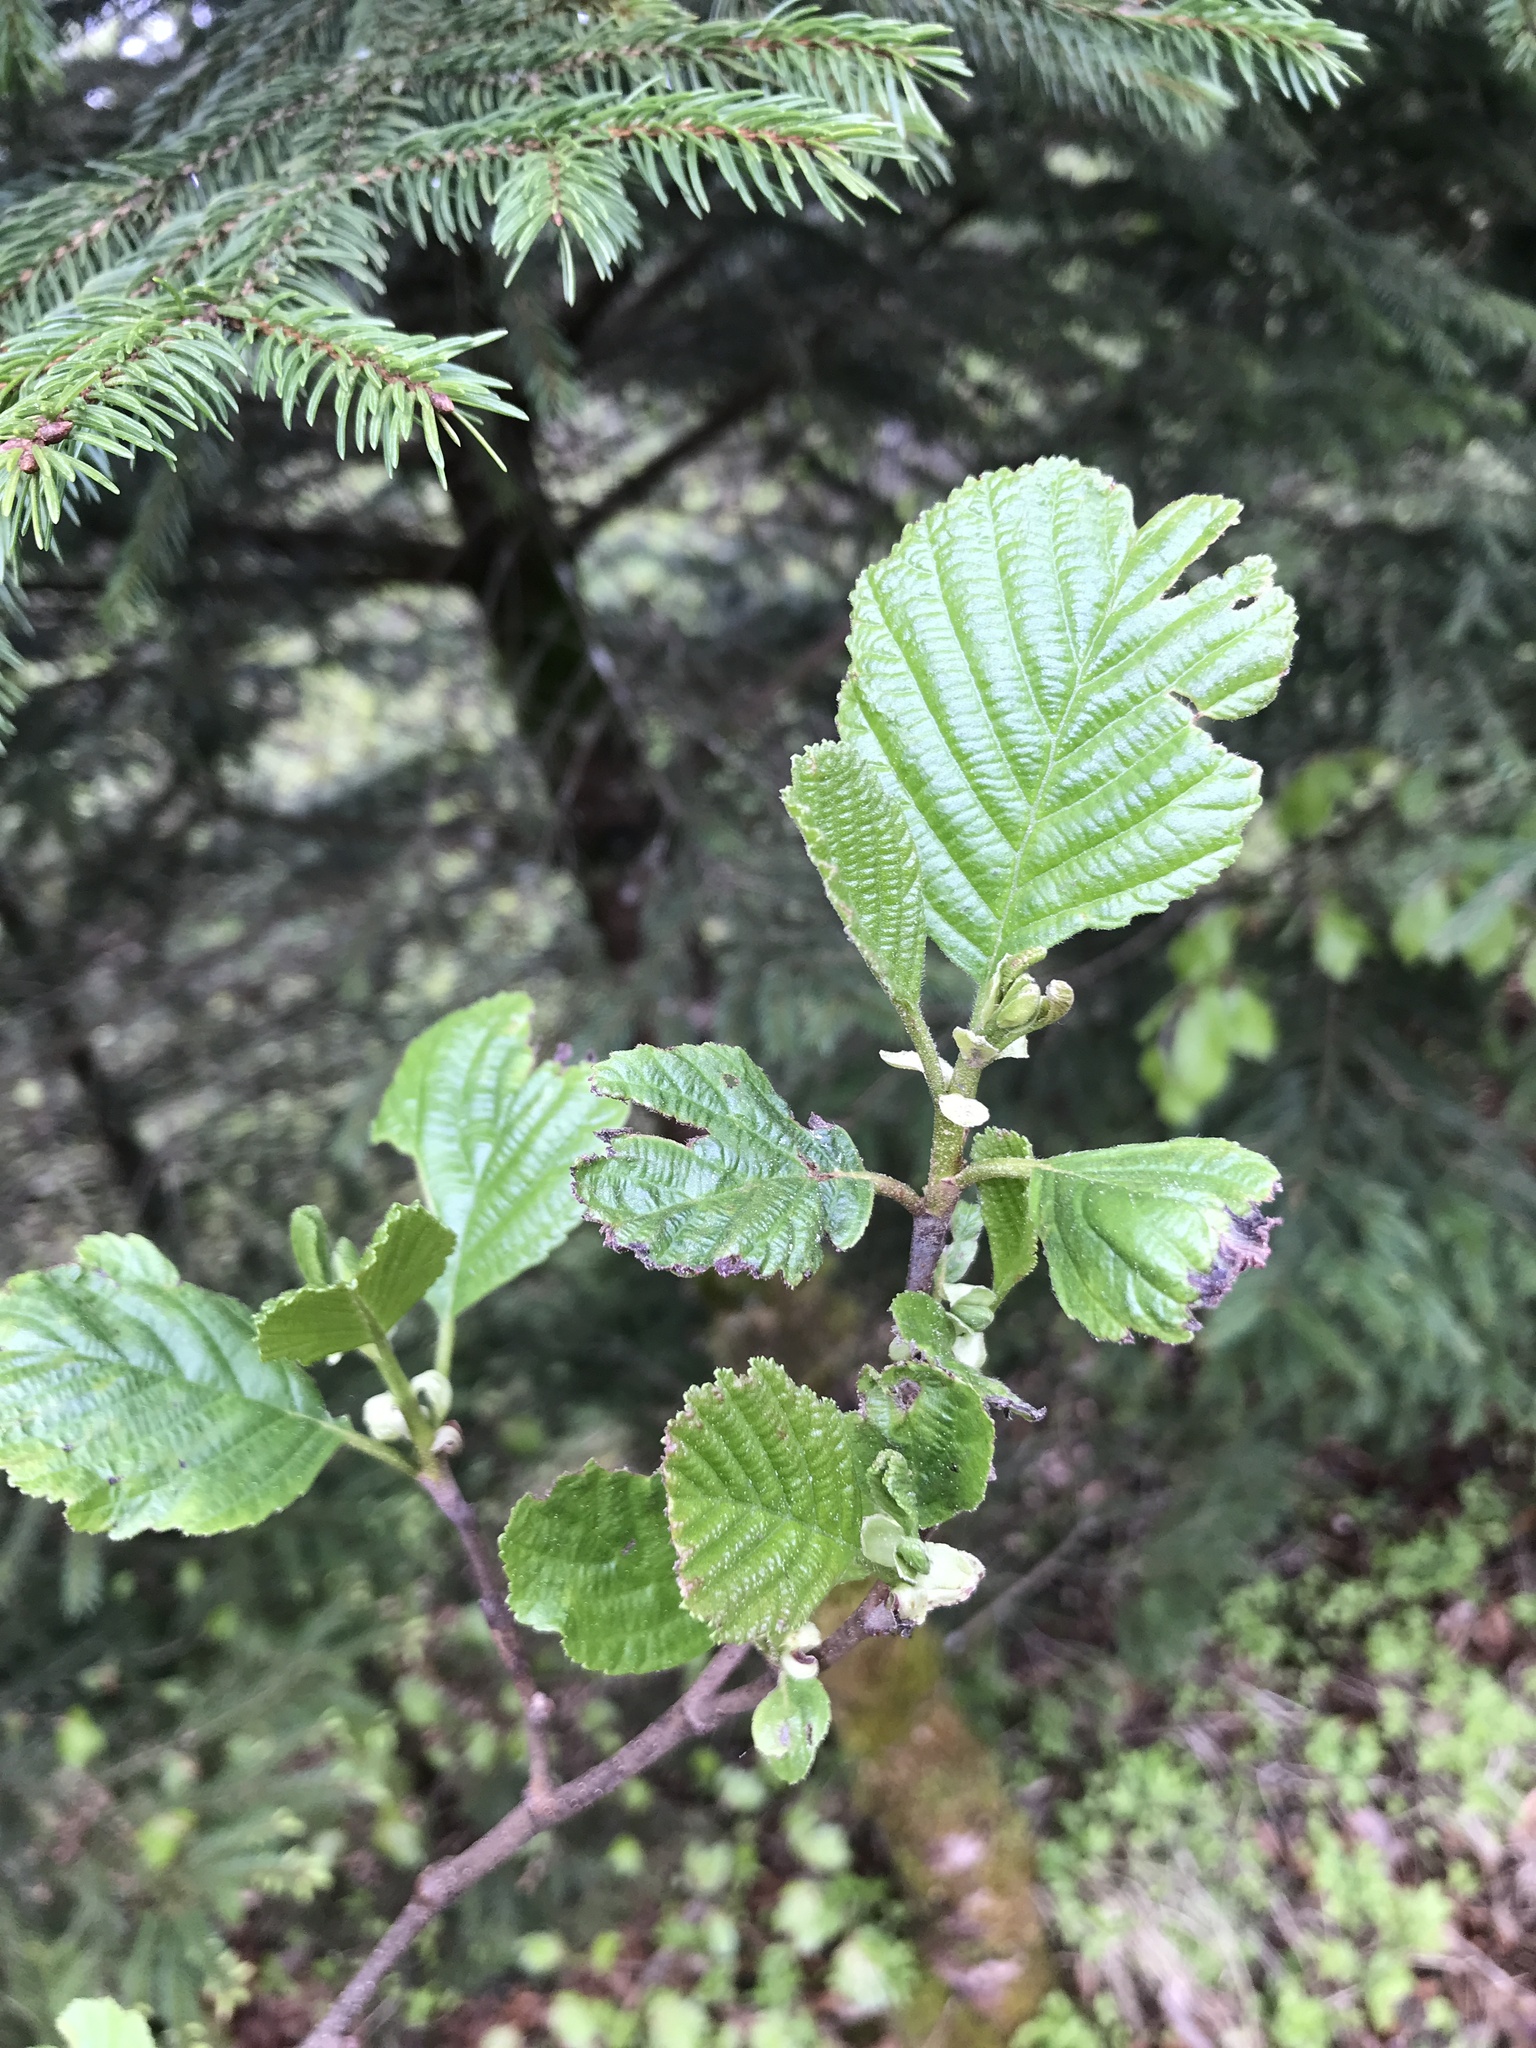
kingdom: Plantae
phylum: Tracheophyta
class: Magnoliopsida
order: Fagales
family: Betulaceae
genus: Alnus
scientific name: Alnus glutinosa
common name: Black alder
